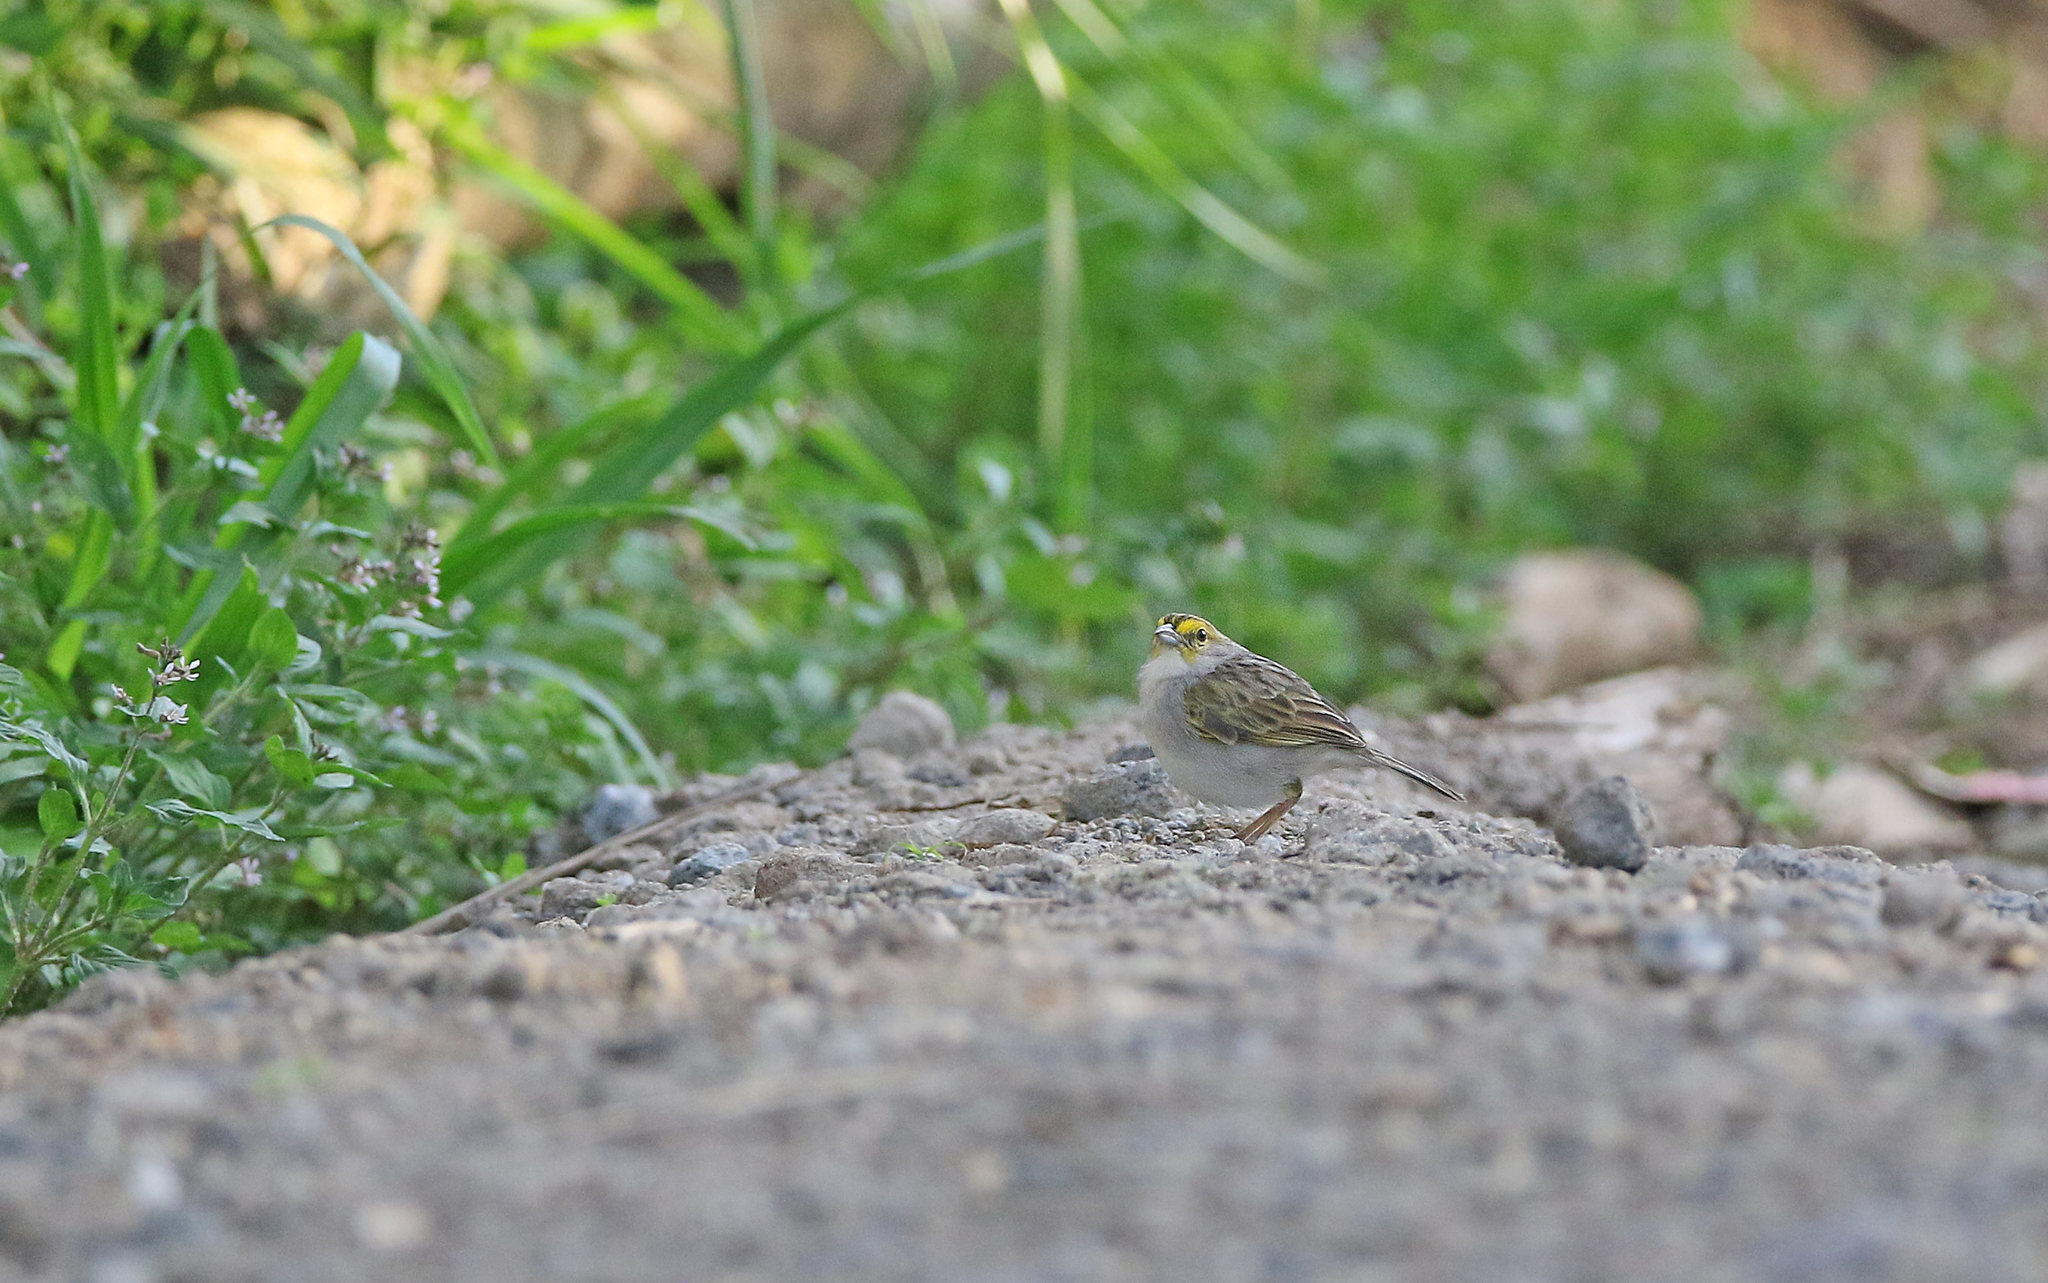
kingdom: Animalia
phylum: Chordata
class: Aves
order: Passeriformes
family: Passerellidae
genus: Ammodramus
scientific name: Ammodramus aurifrons
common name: Yellow-browed sparrow
